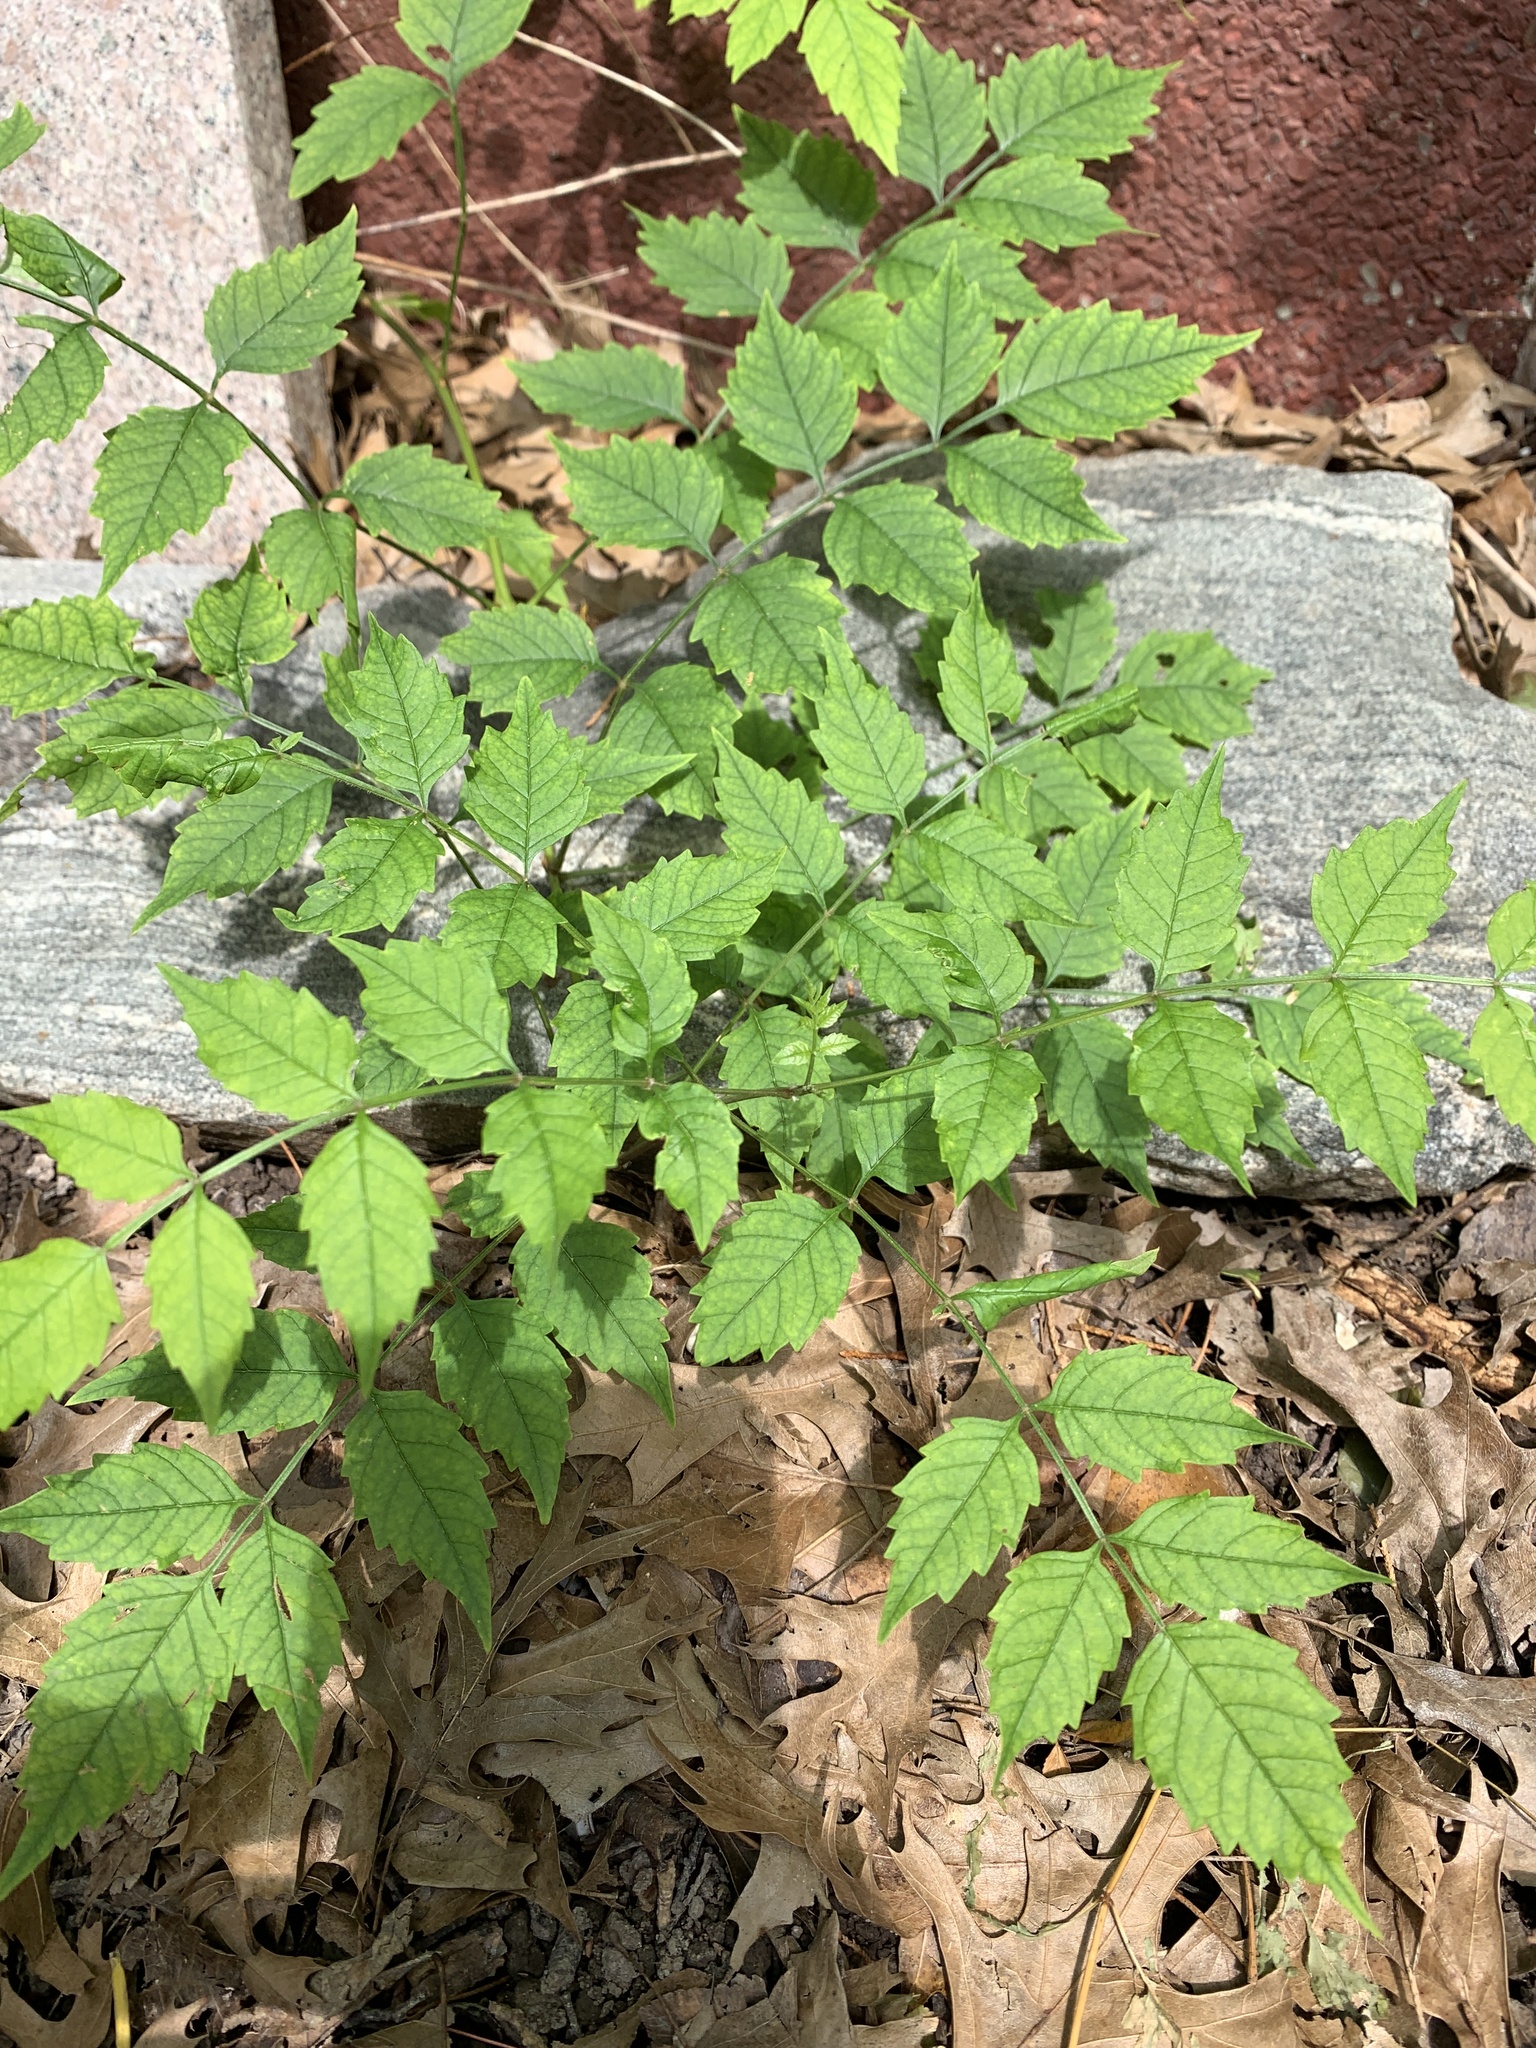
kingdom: Plantae
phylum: Tracheophyta
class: Magnoliopsida
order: Lamiales
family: Bignoniaceae
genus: Campsis
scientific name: Campsis radicans
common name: Trumpet-creeper
